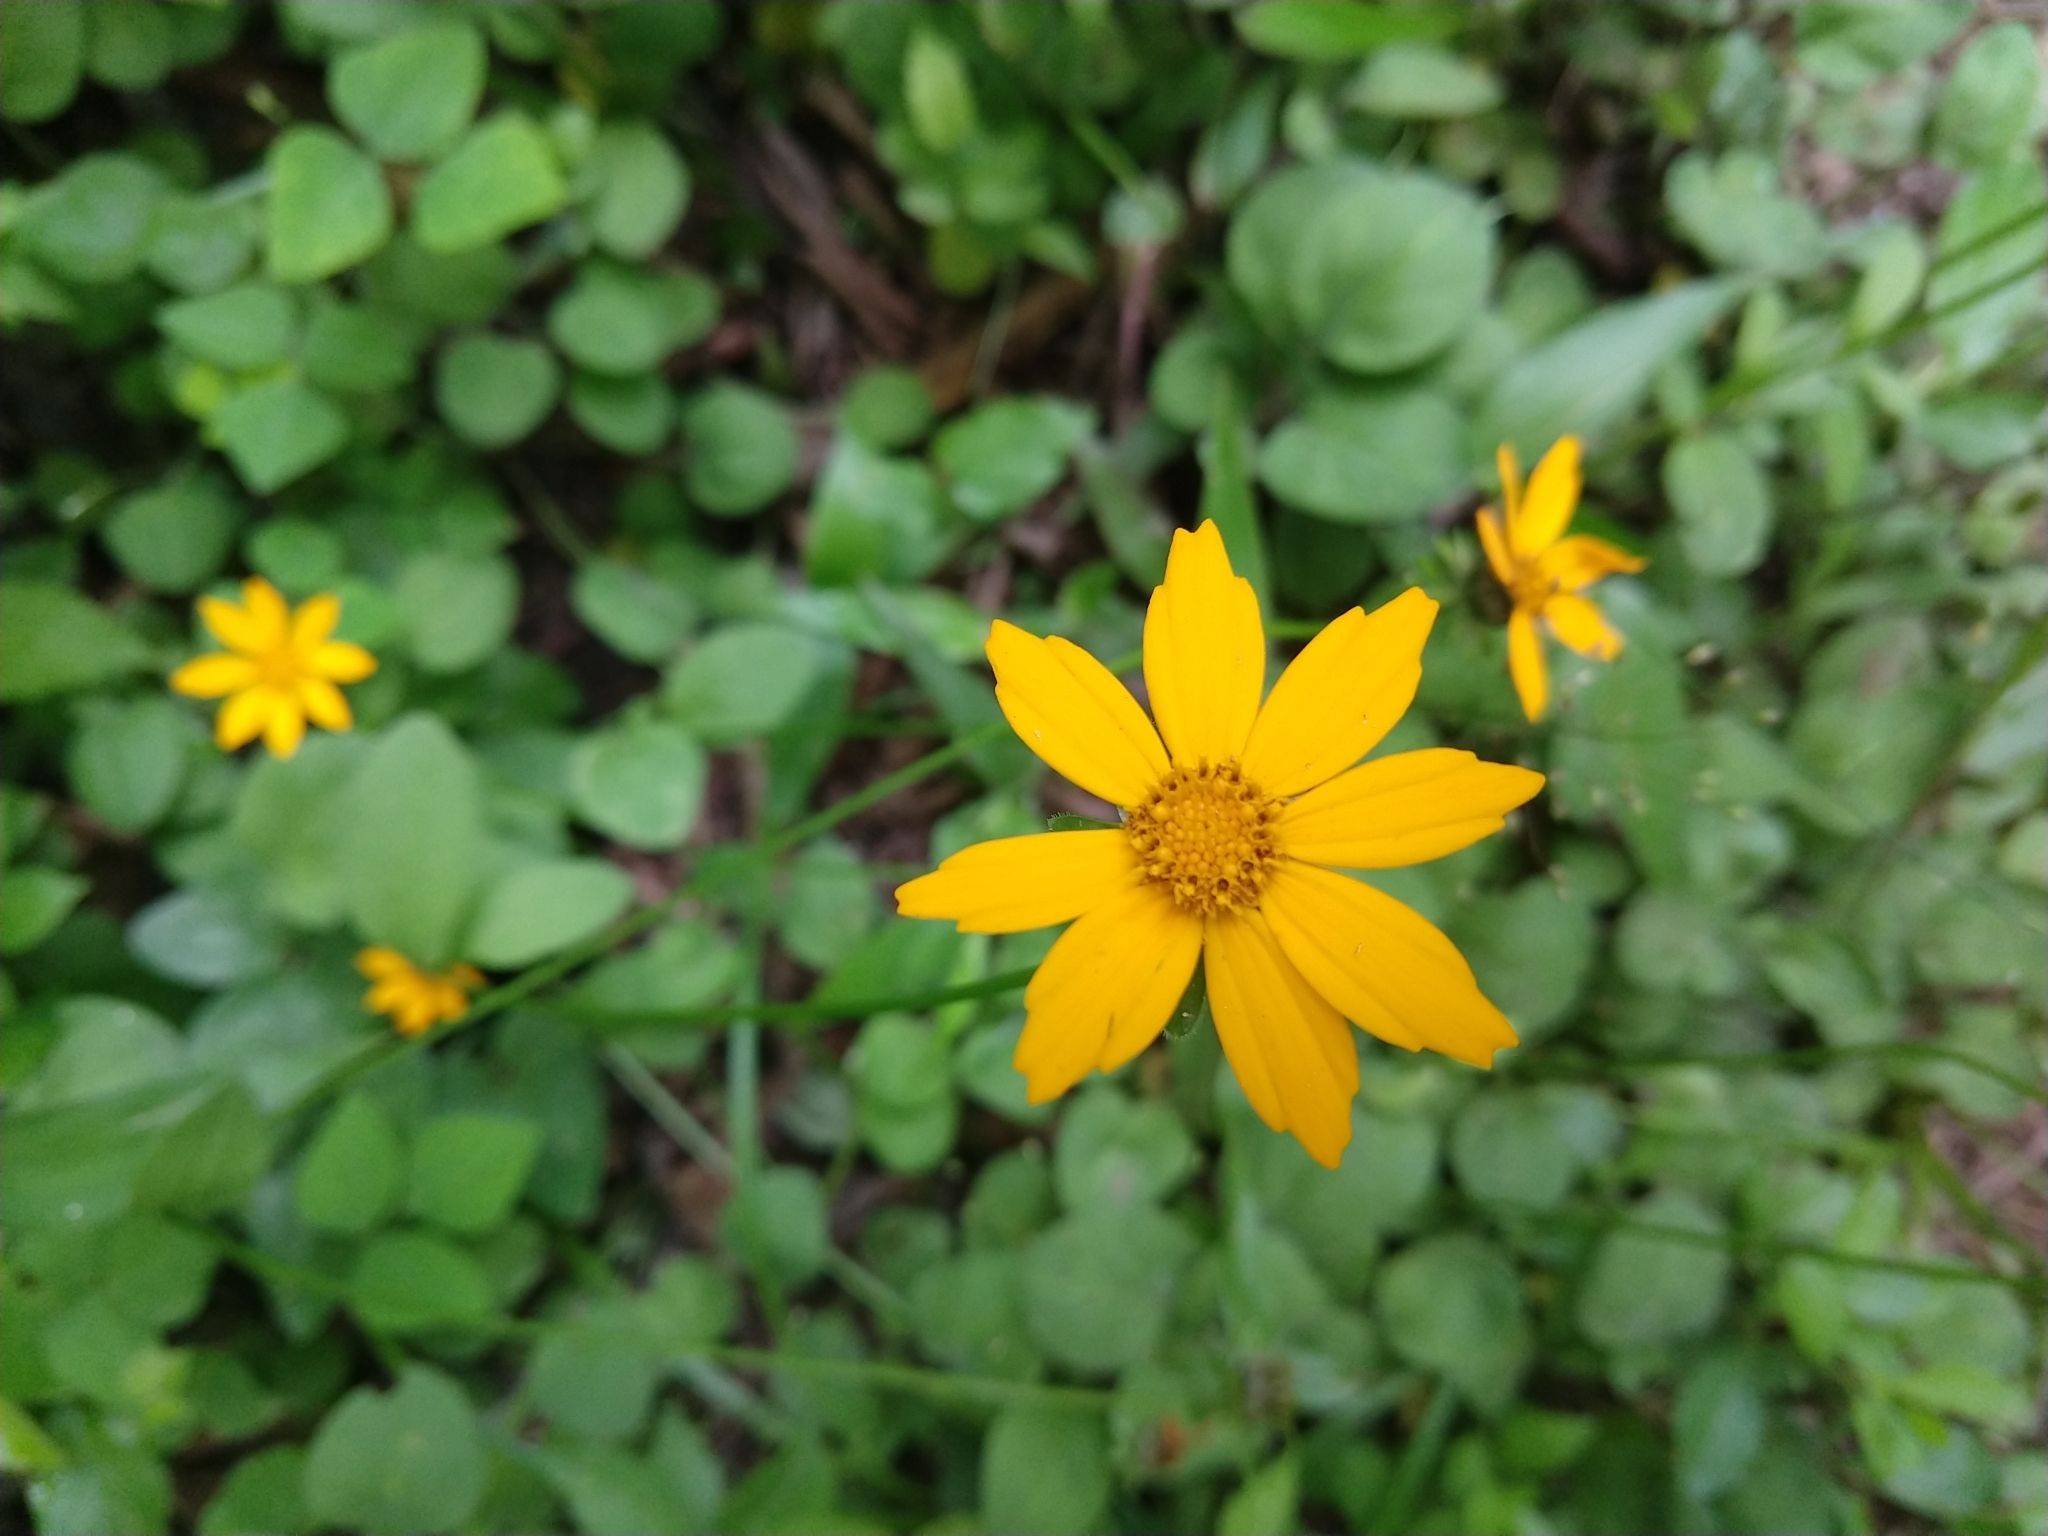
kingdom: Plantae
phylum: Tracheophyta
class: Magnoliopsida
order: Asterales
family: Asteraceae
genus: Coreopsis
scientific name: Coreopsis auriculata
